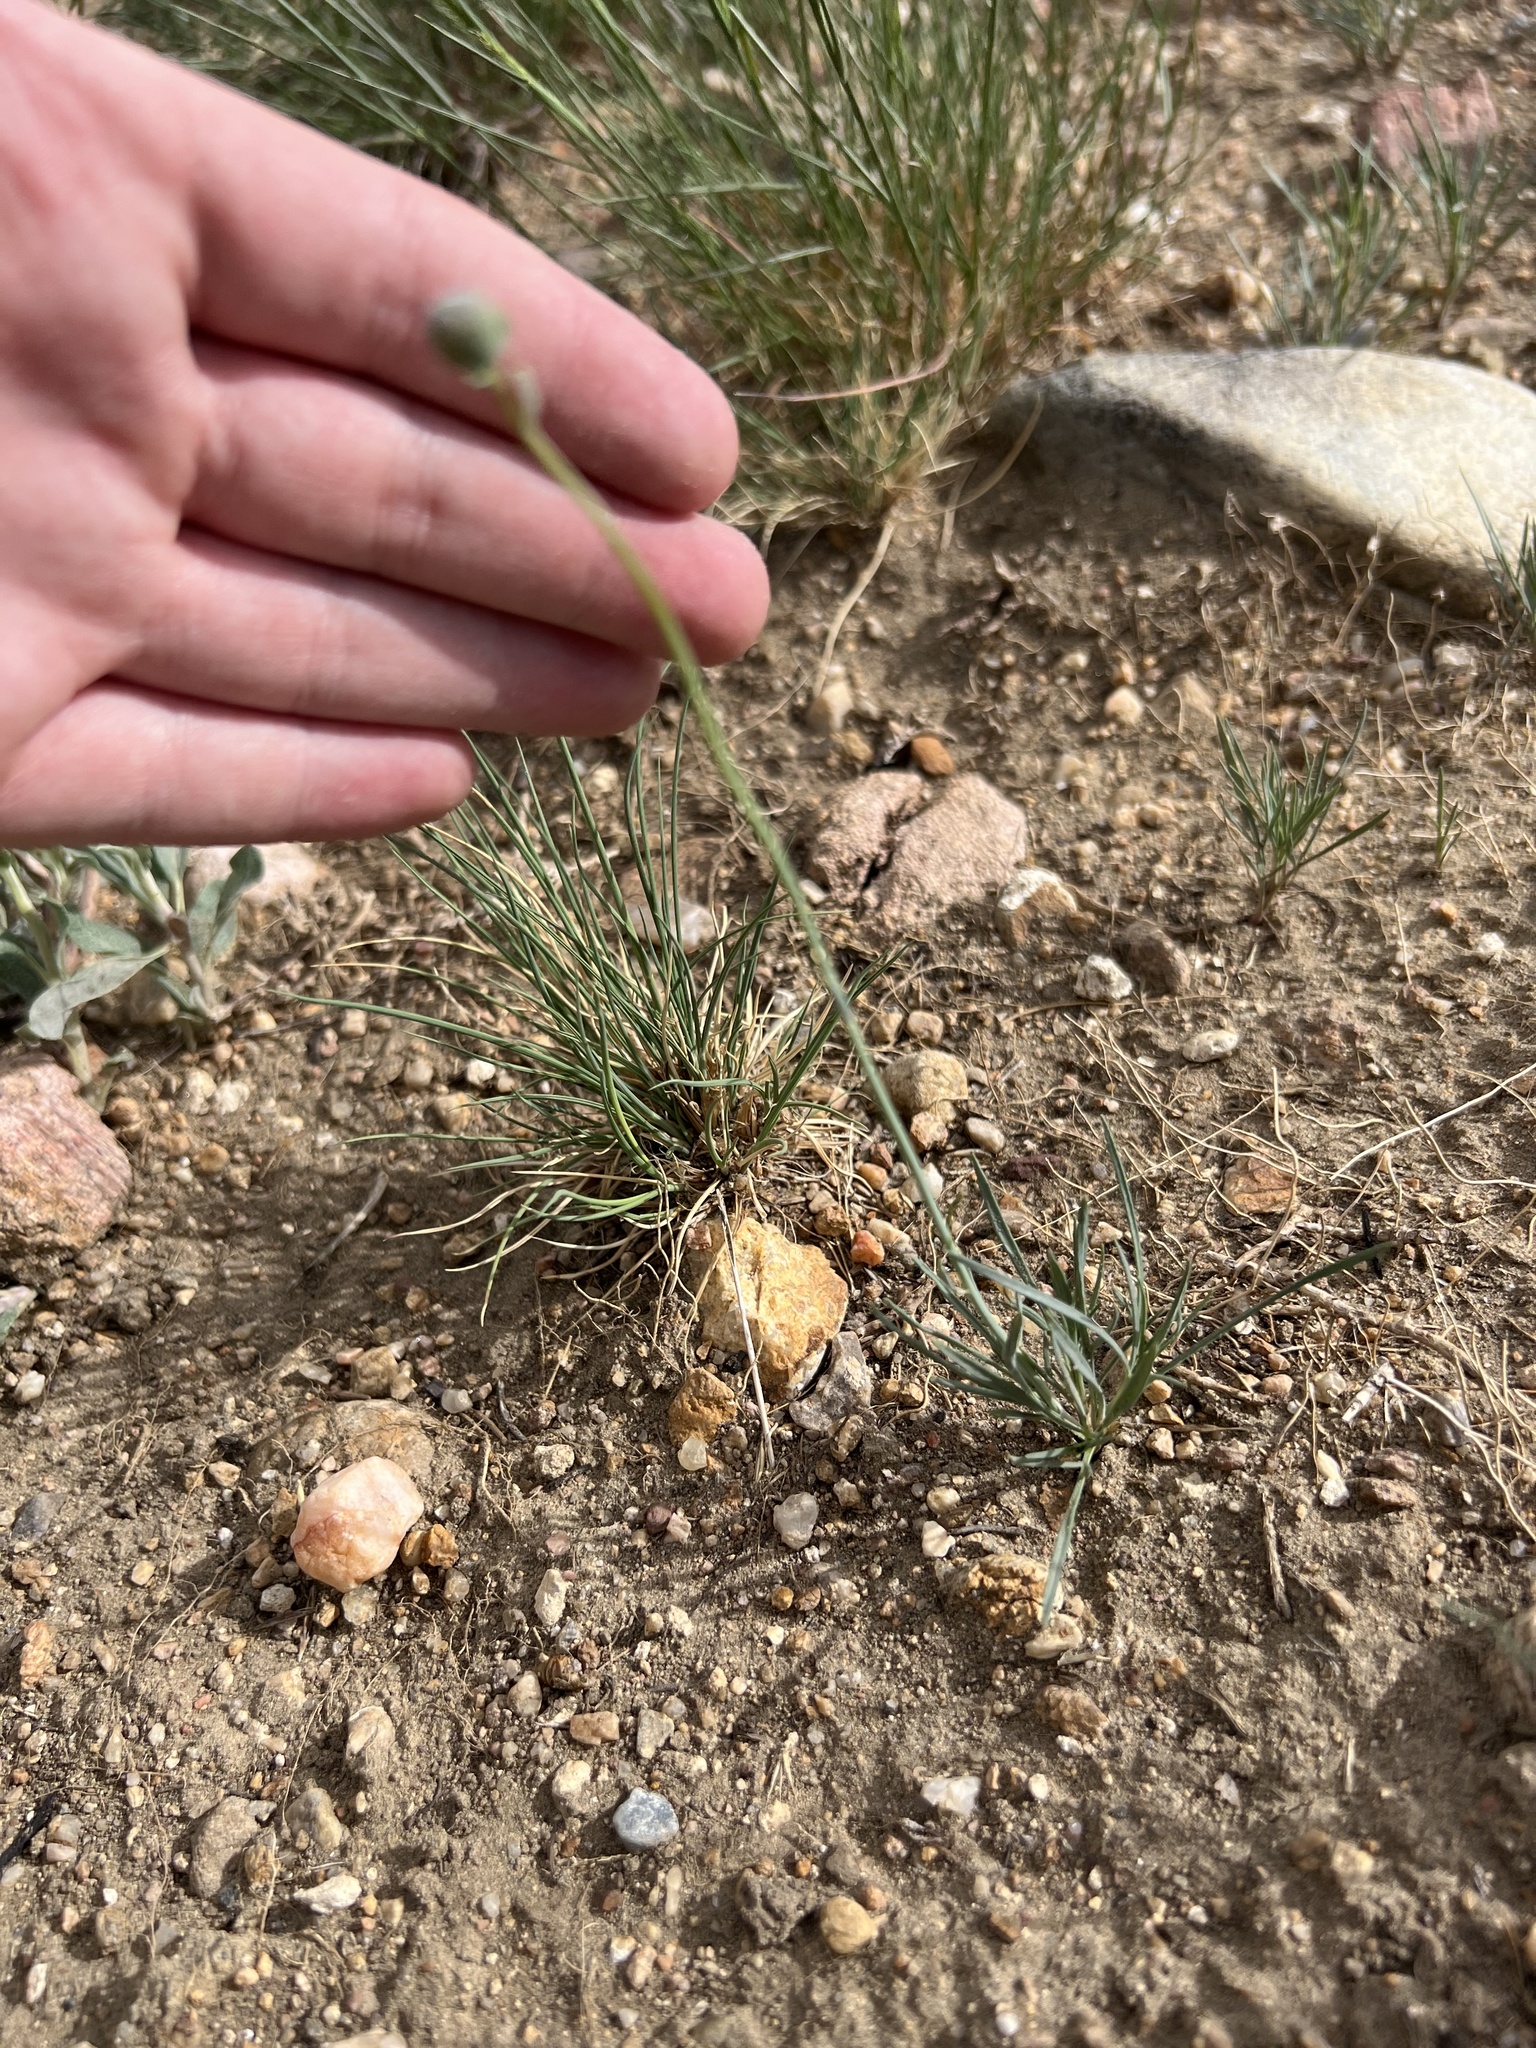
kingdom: Plantae
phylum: Tracheophyta
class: Magnoliopsida
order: Asterales
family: Asteraceae
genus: Thelesperma
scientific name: Thelesperma megapotamicum
